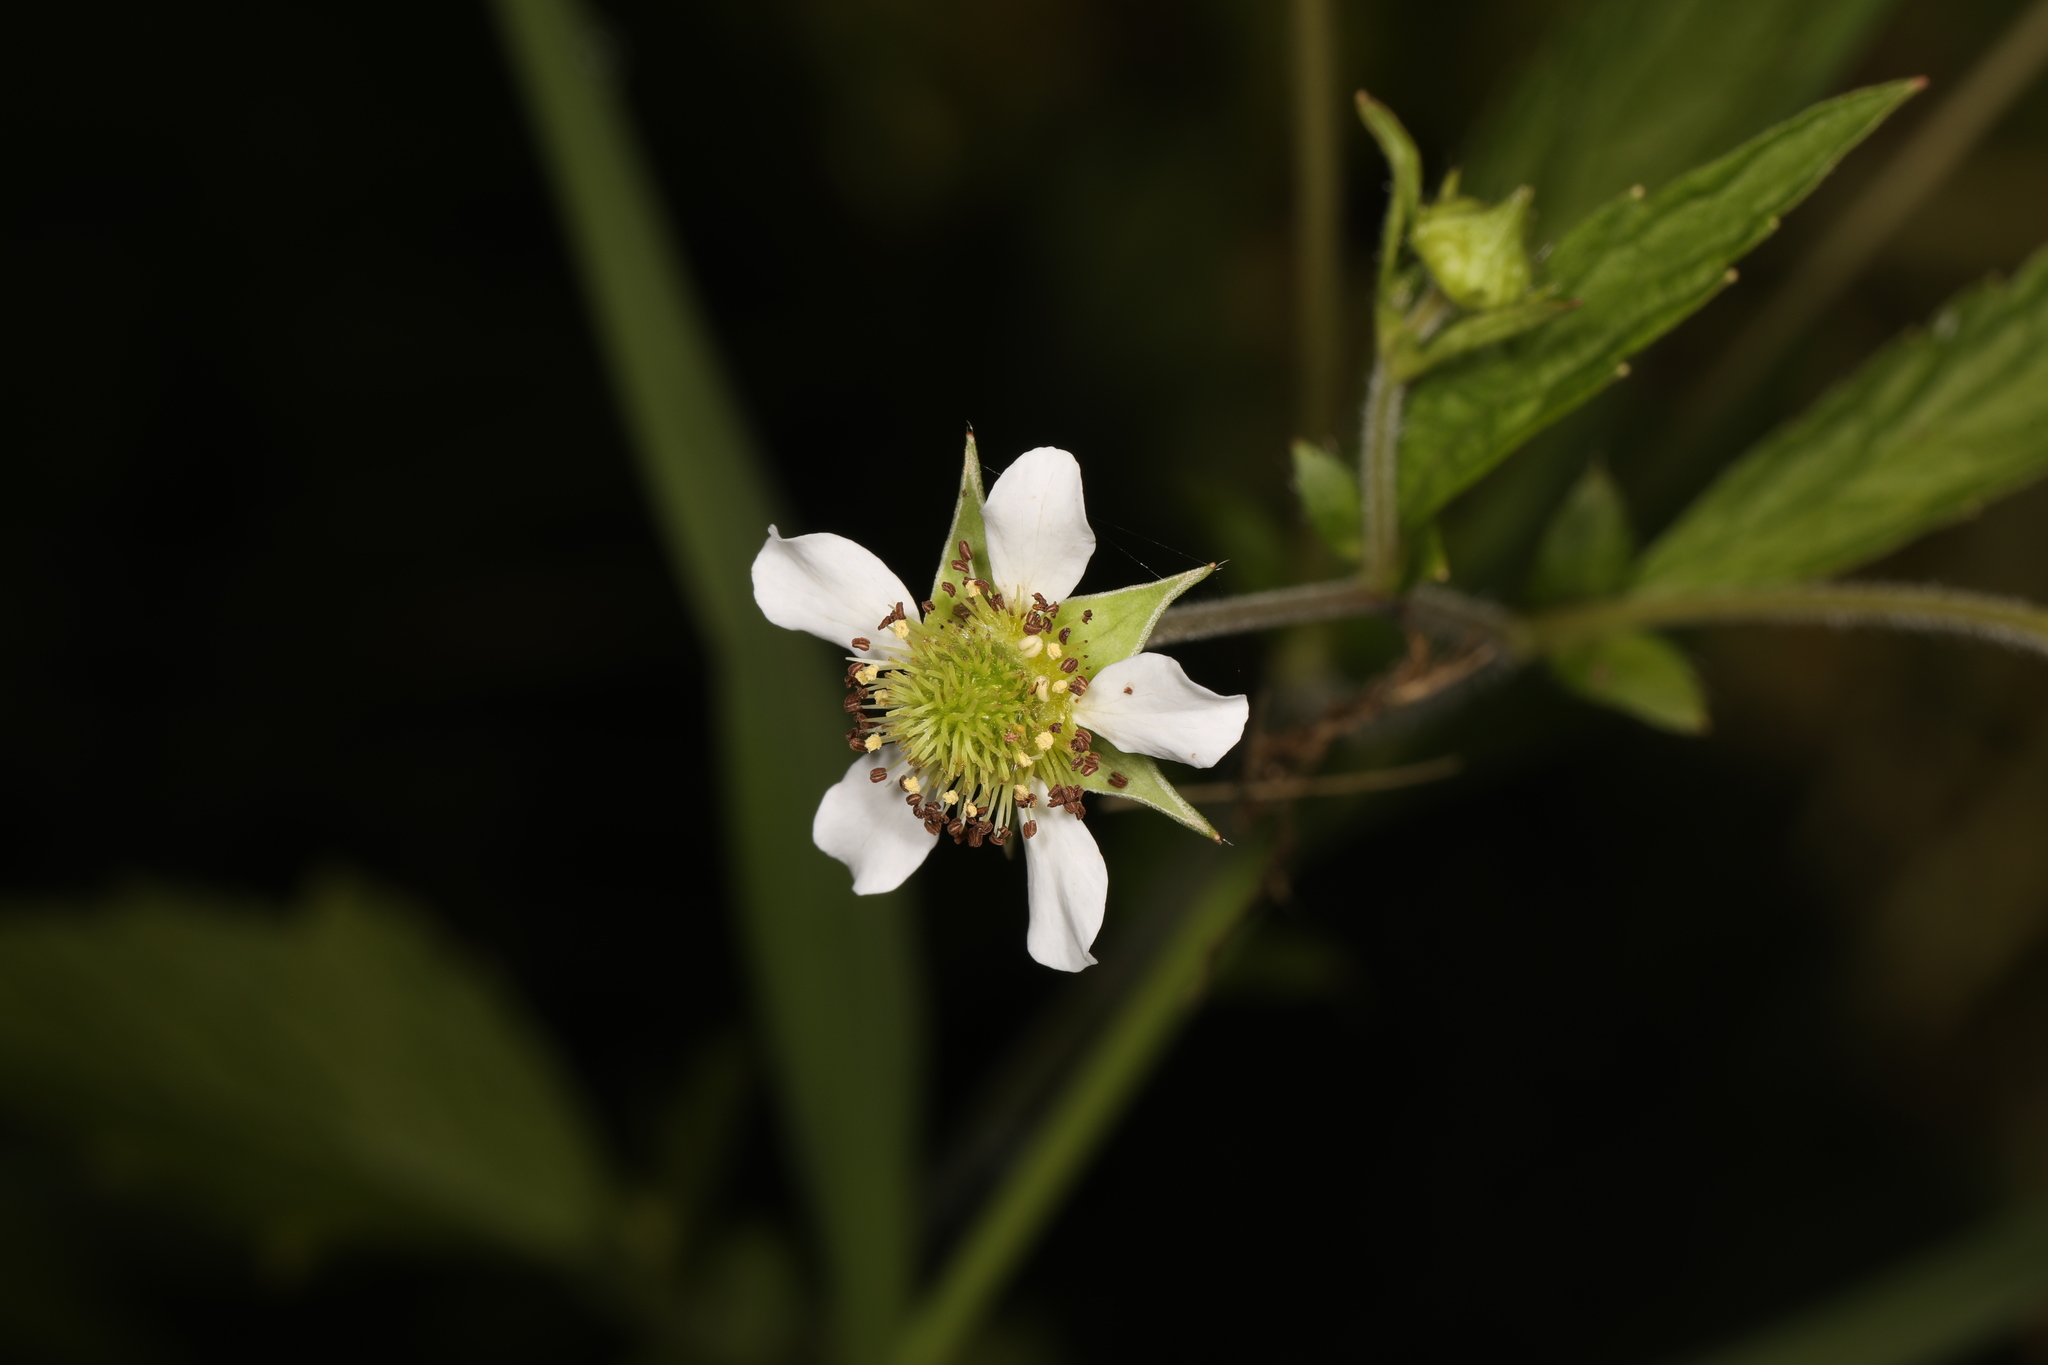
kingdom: Plantae
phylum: Tracheophyta
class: Magnoliopsida
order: Rosales
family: Rosaceae
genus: Geum
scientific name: Geum canadense
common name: White avens
